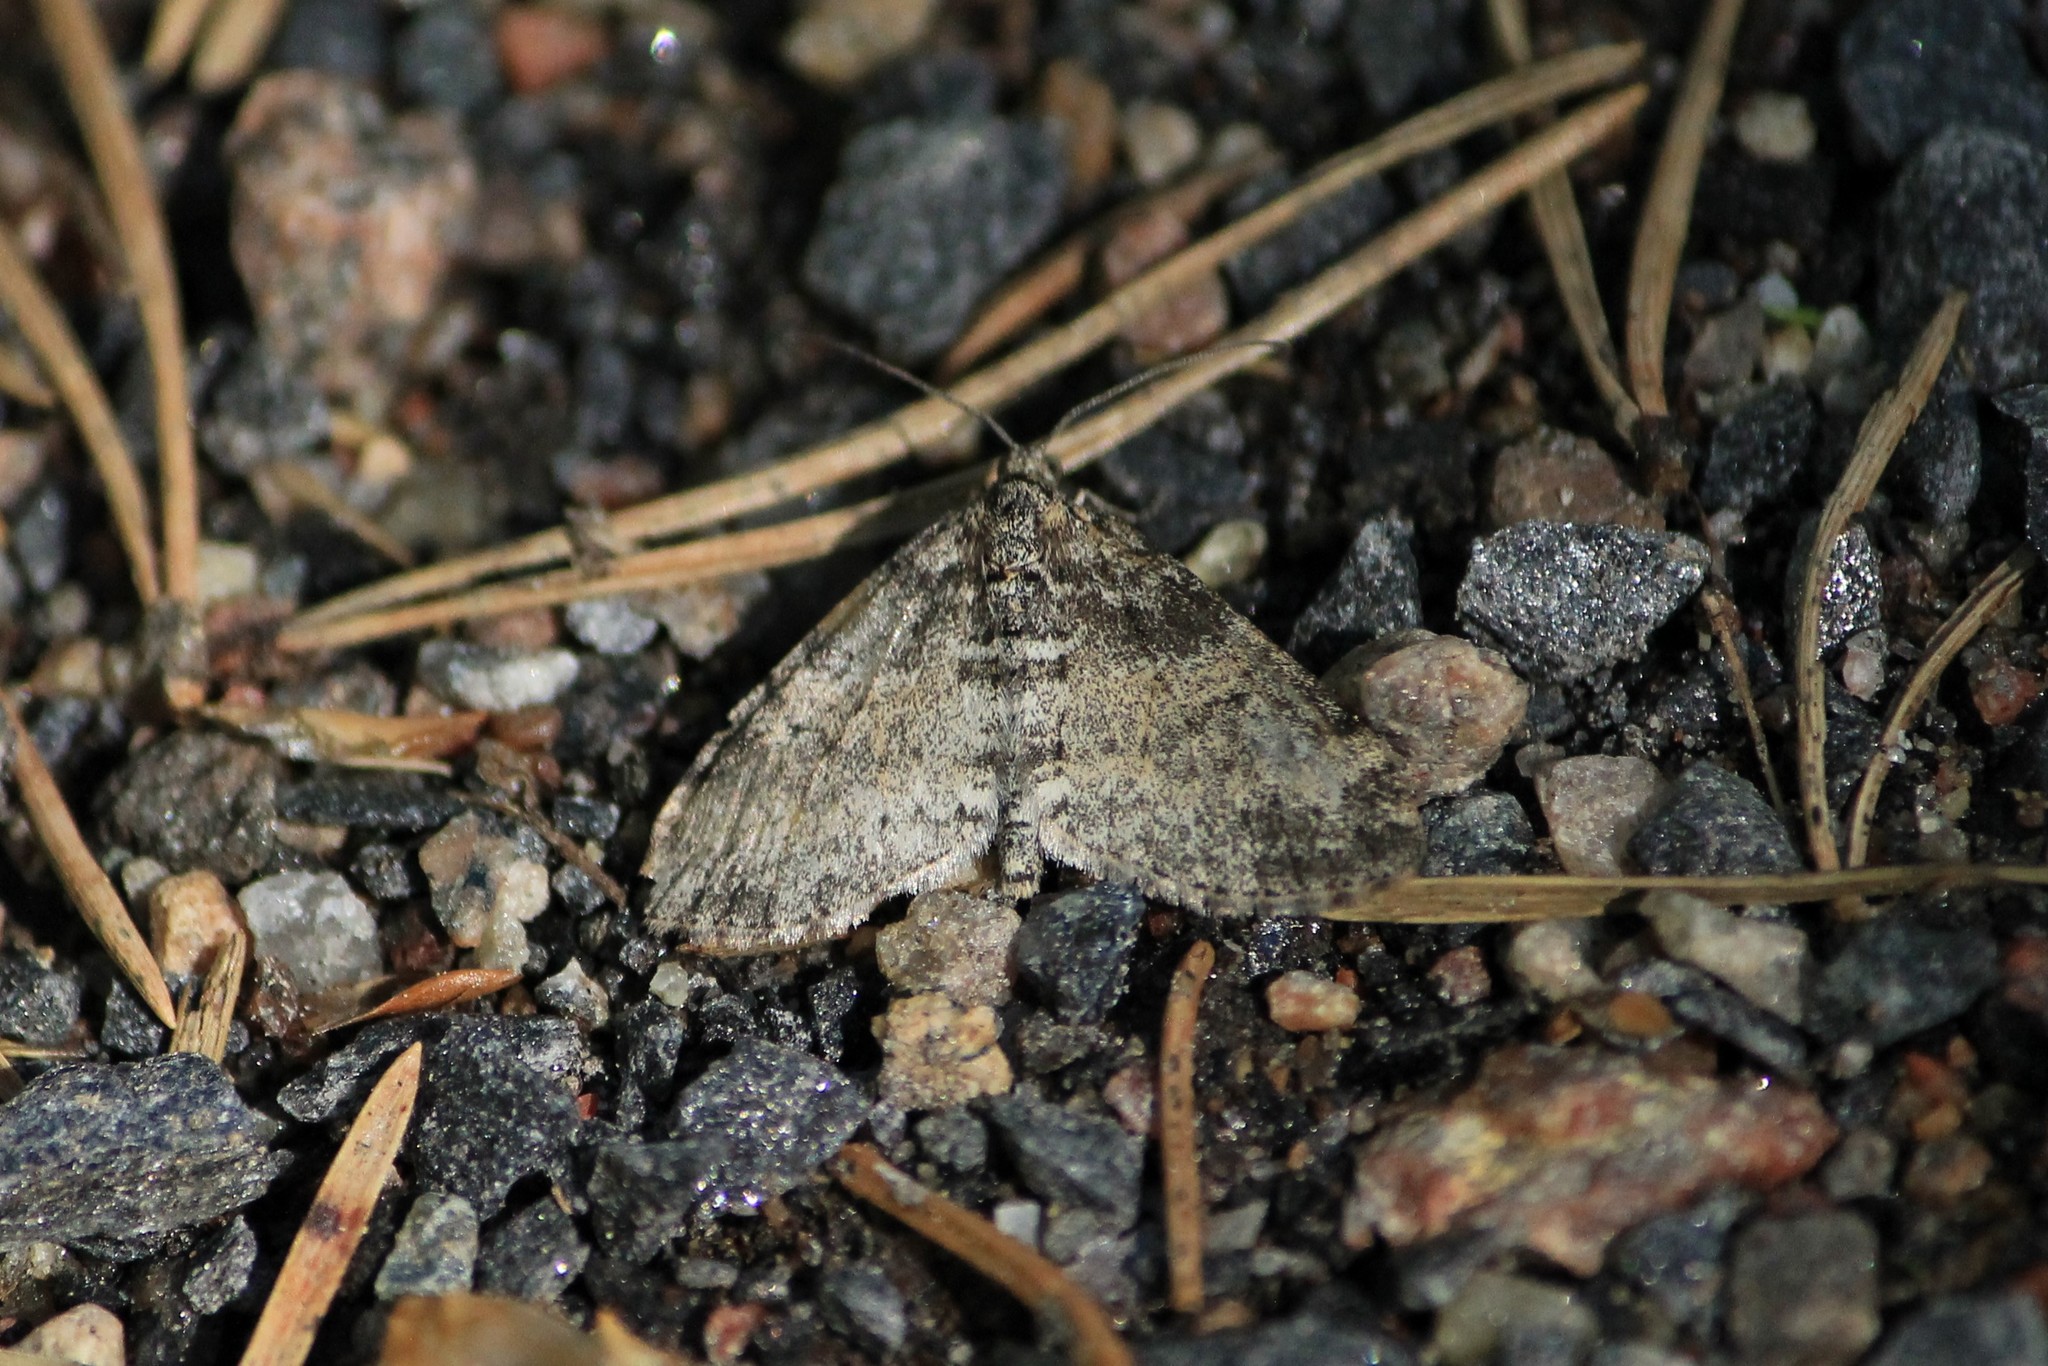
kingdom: Animalia
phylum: Arthropoda
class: Insecta
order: Lepidoptera
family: Geometridae
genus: Lobophora
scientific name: Lobophora halterata
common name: Seraphim
